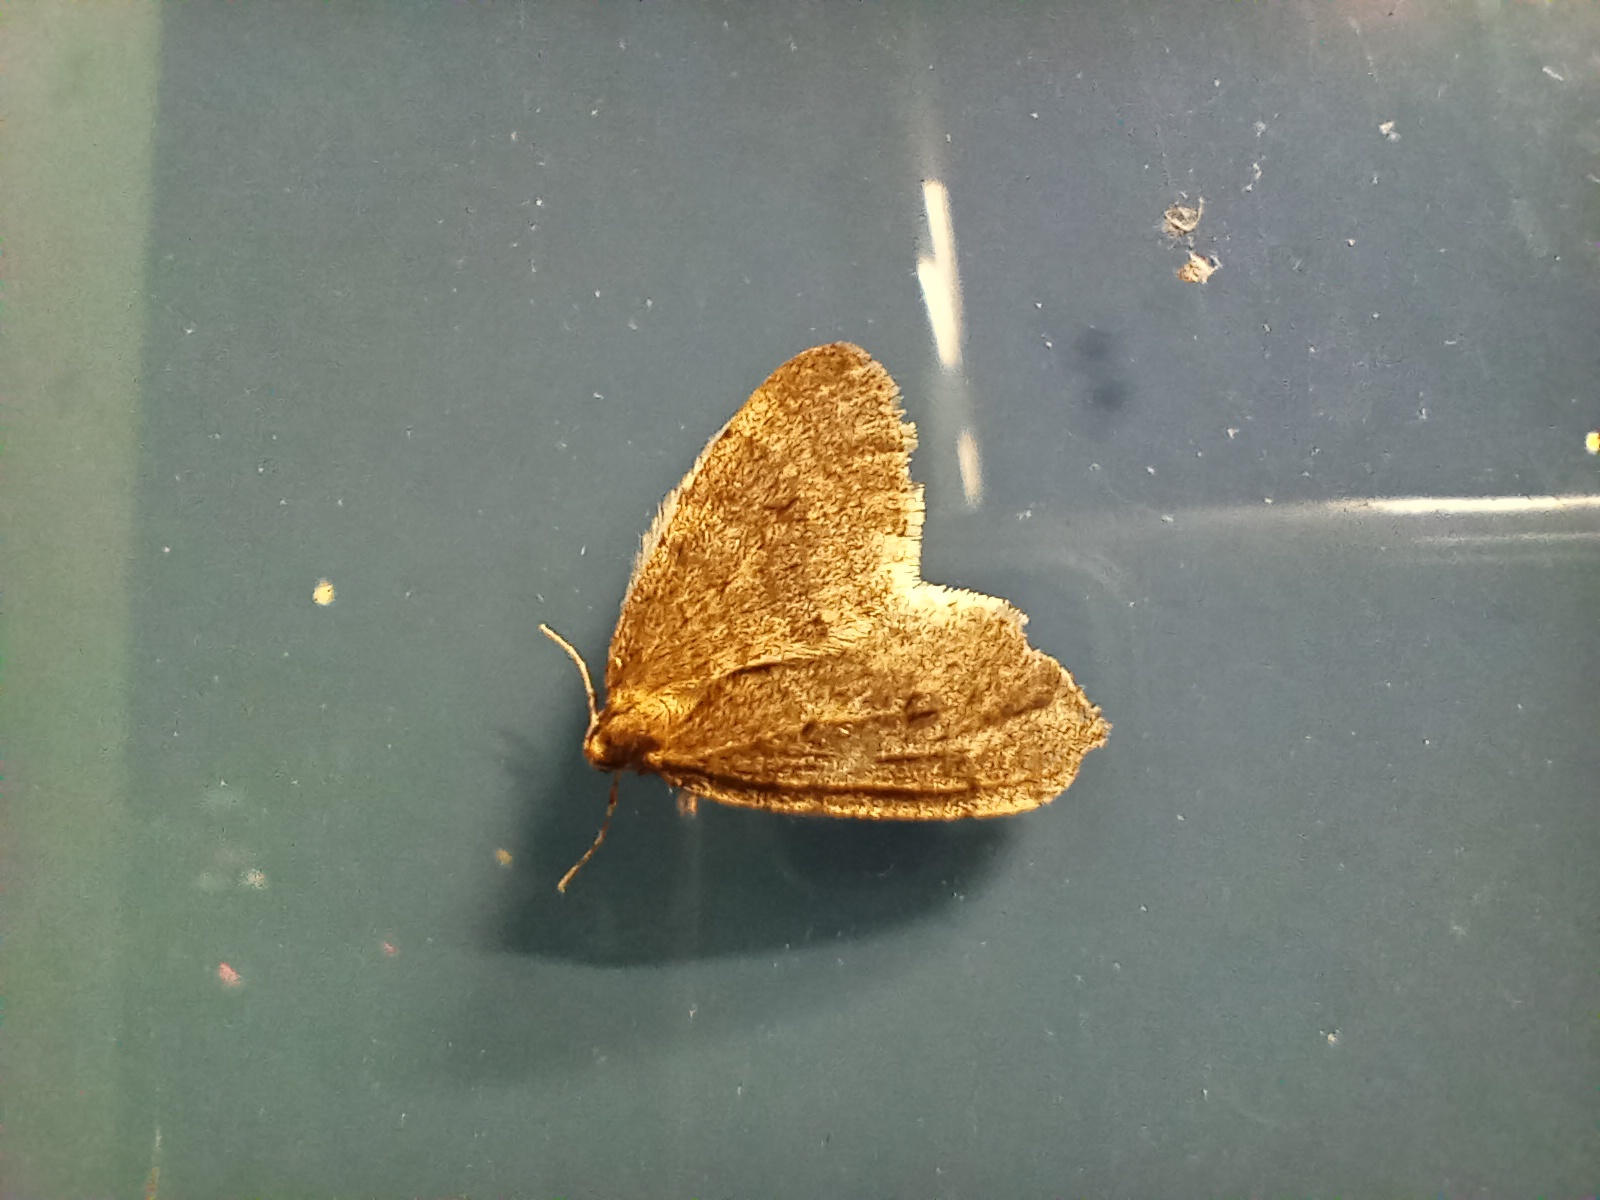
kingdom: Animalia
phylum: Arthropoda
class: Insecta
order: Lepidoptera
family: Geometridae
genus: Operophtera
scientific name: Operophtera brumata
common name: Winter moth
